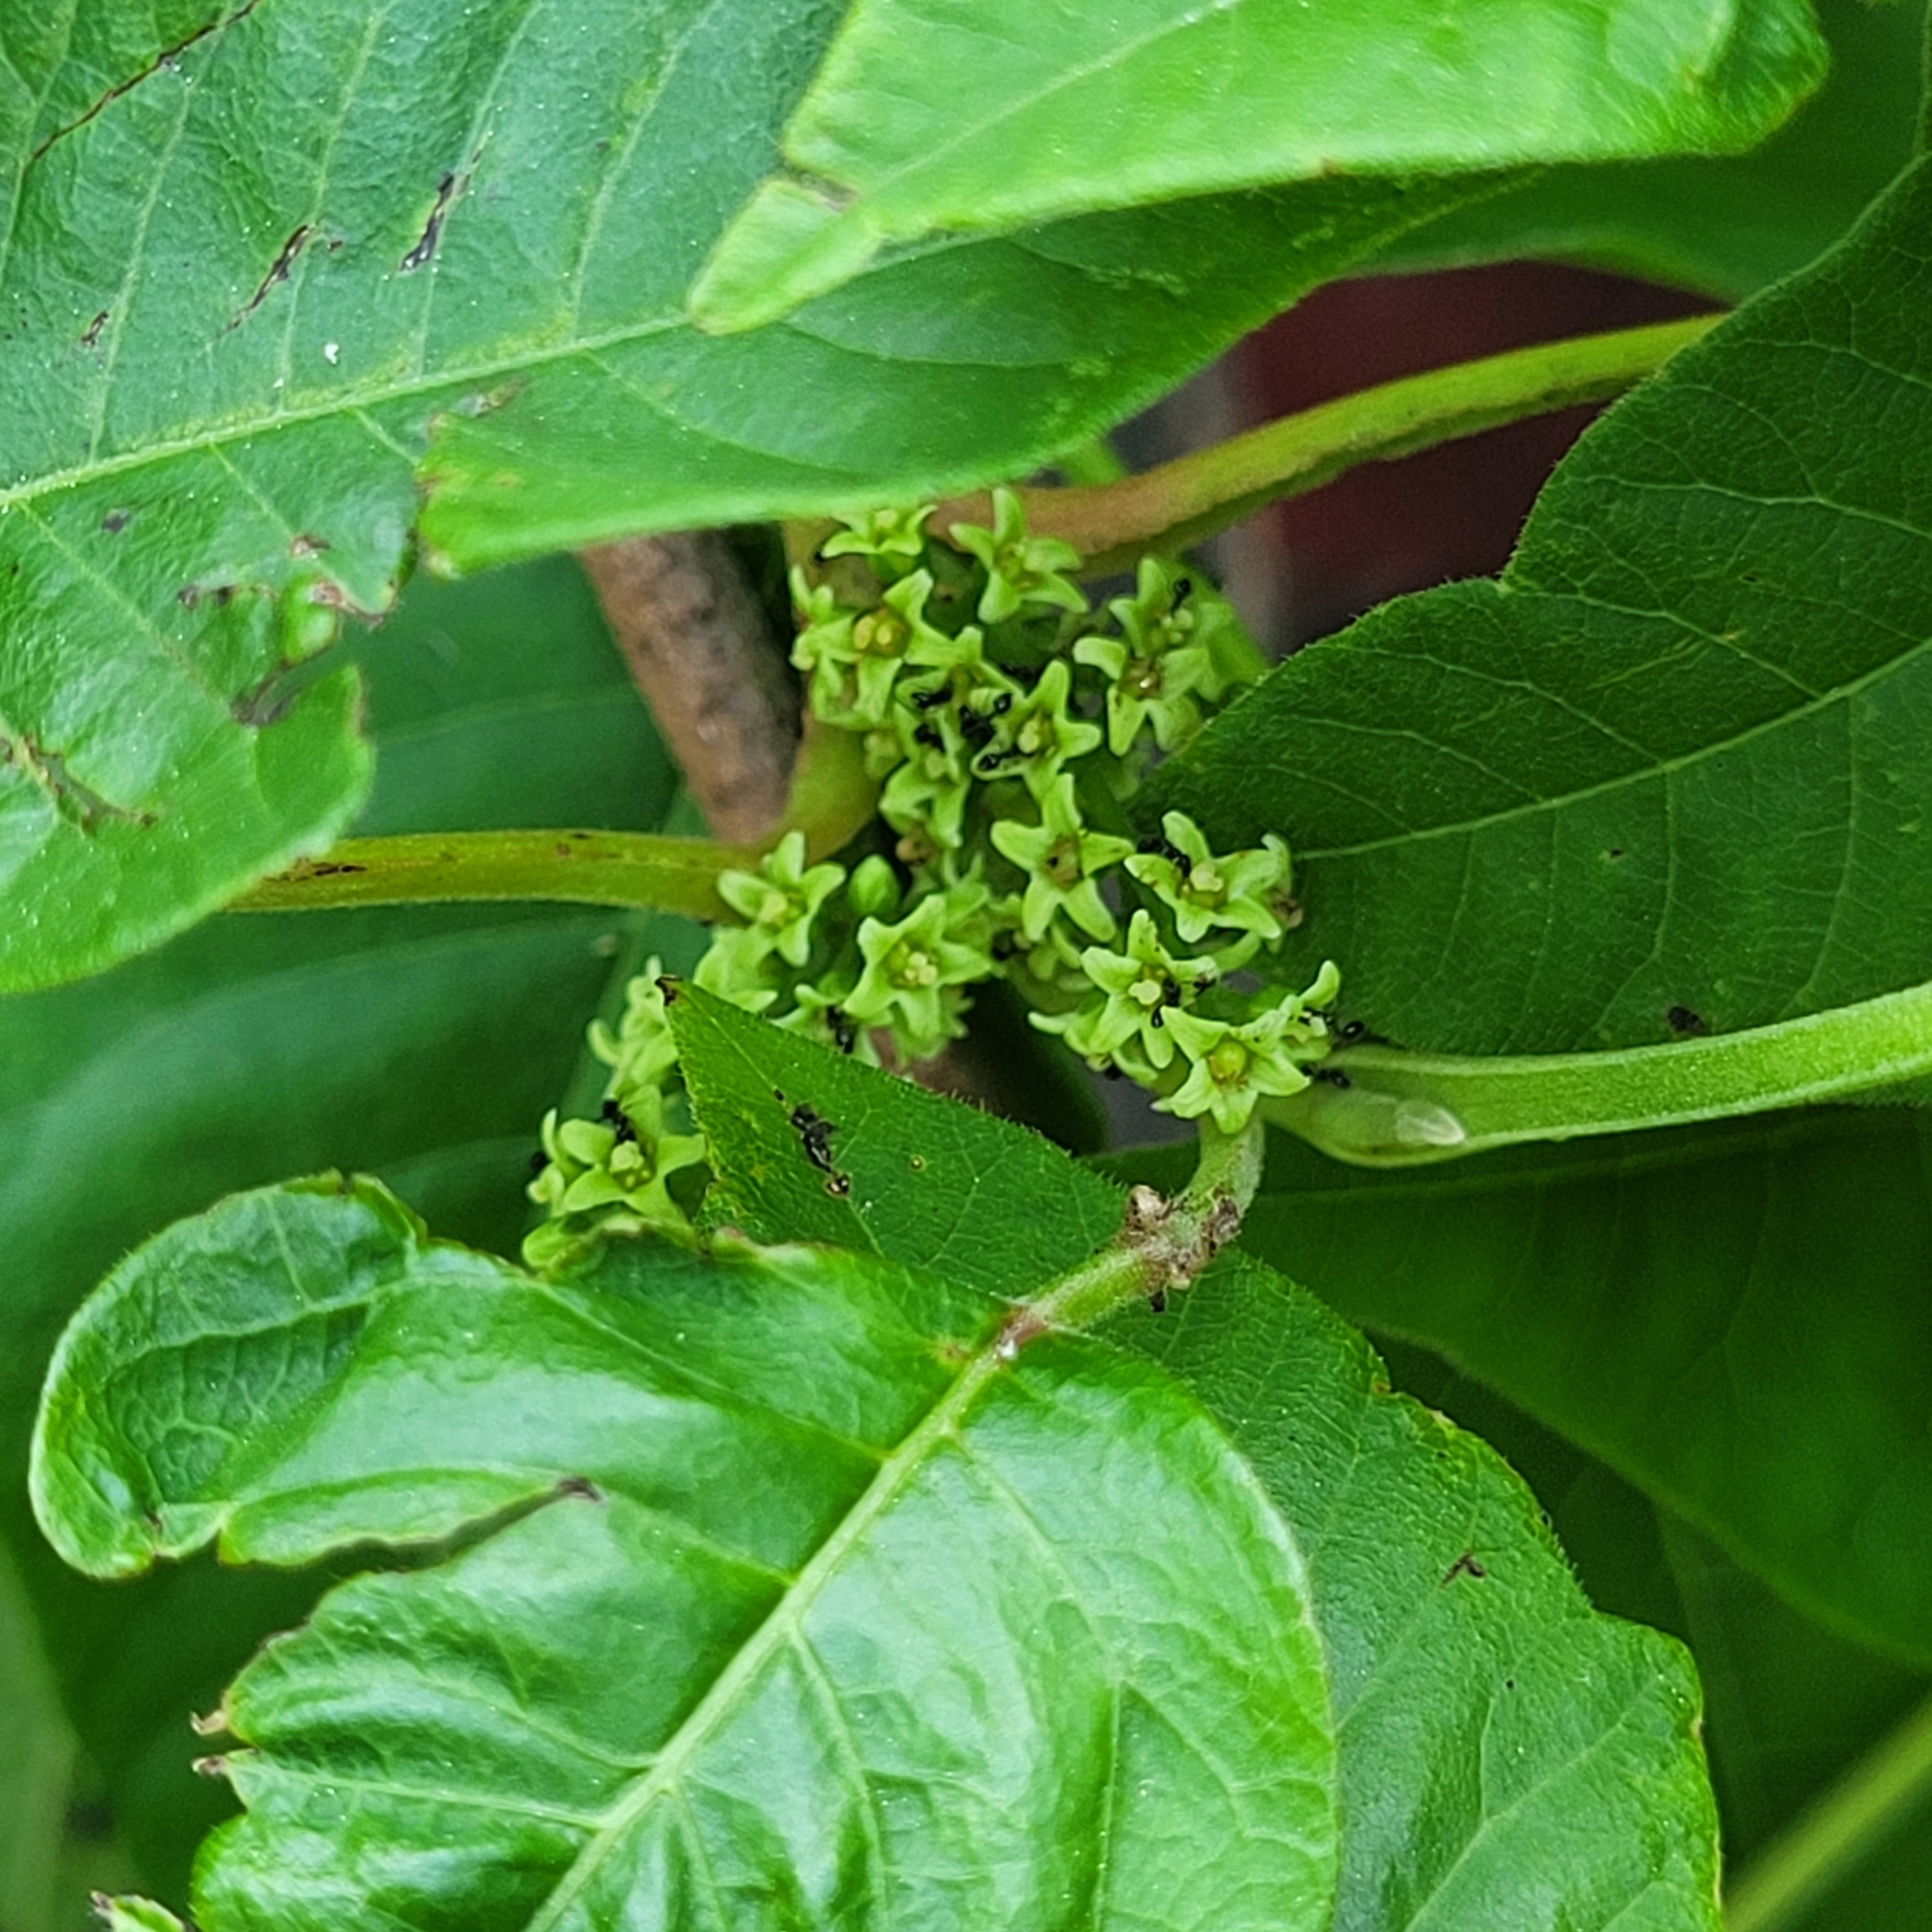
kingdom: Plantae
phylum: Tracheophyta
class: Magnoliopsida
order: Sapindales
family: Anacardiaceae
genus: Toxicodendron
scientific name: Toxicodendron radicans
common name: Poison ivy
